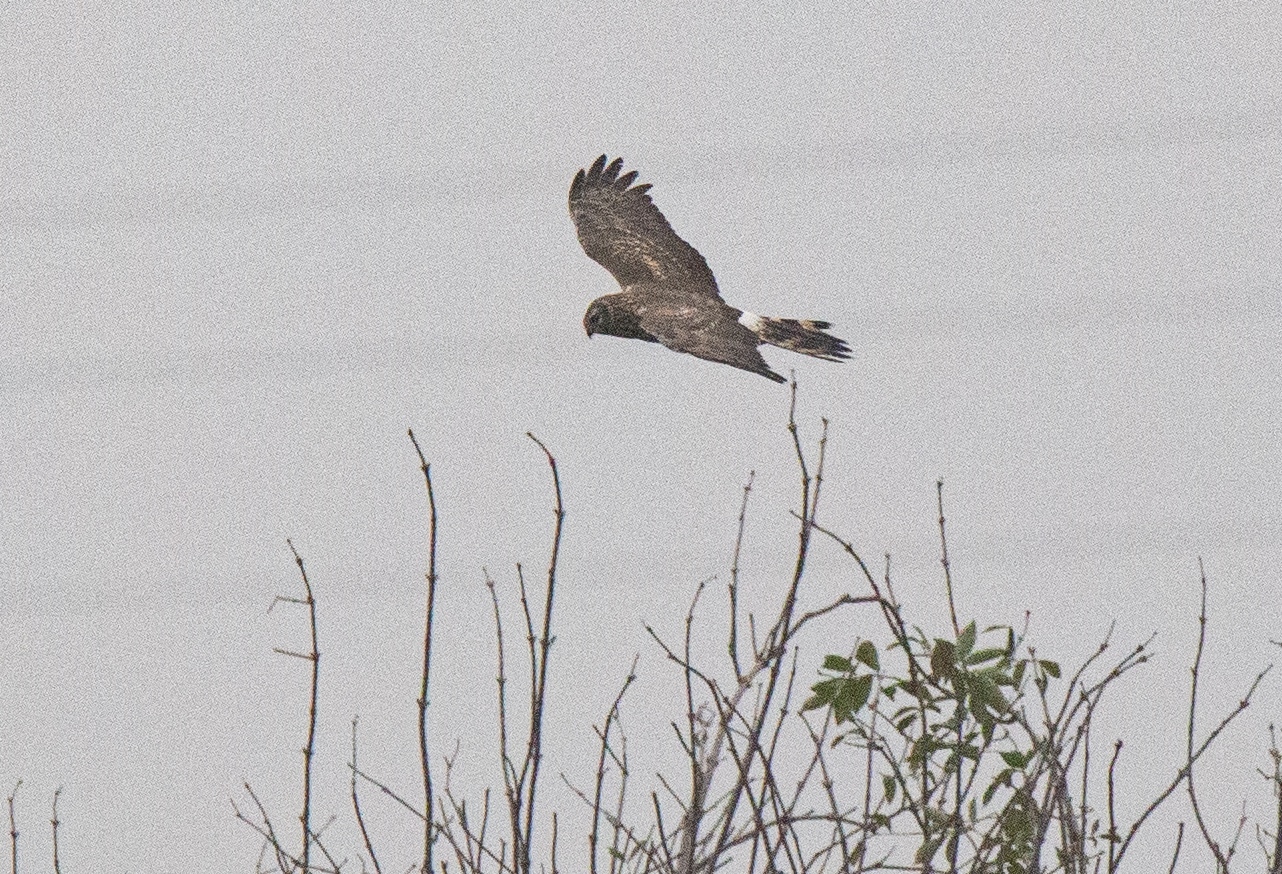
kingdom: Animalia
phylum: Chordata
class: Aves
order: Accipitriformes
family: Accipitridae
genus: Circus
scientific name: Circus cyaneus
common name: Hen harrier
